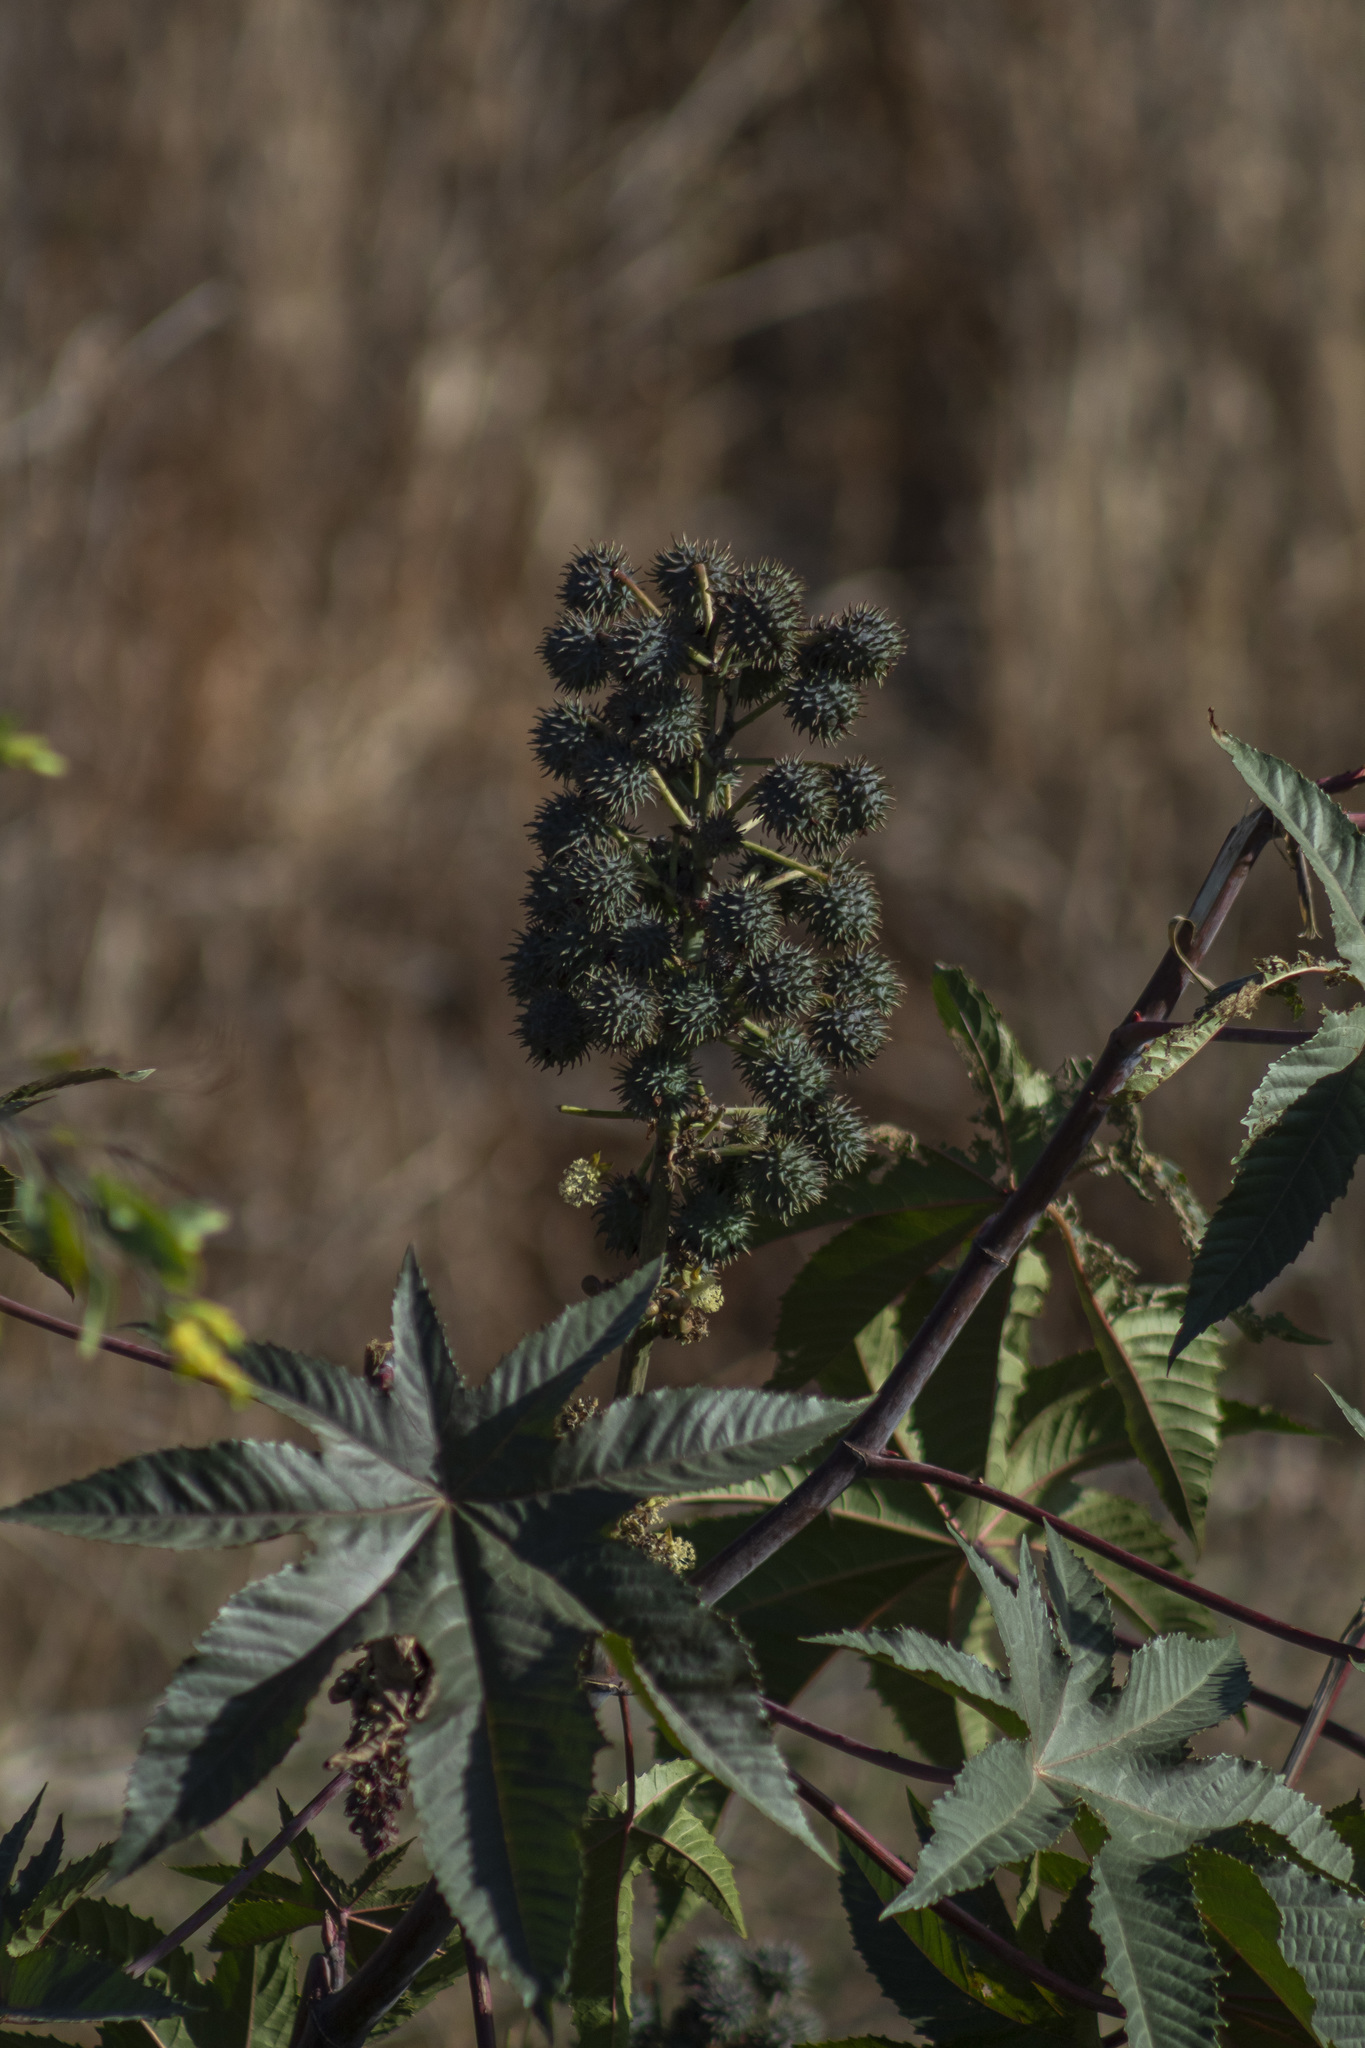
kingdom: Plantae
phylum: Tracheophyta
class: Magnoliopsida
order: Malpighiales
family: Euphorbiaceae
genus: Ricinus
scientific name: Ricinus communis
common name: Castor-oil-plant
